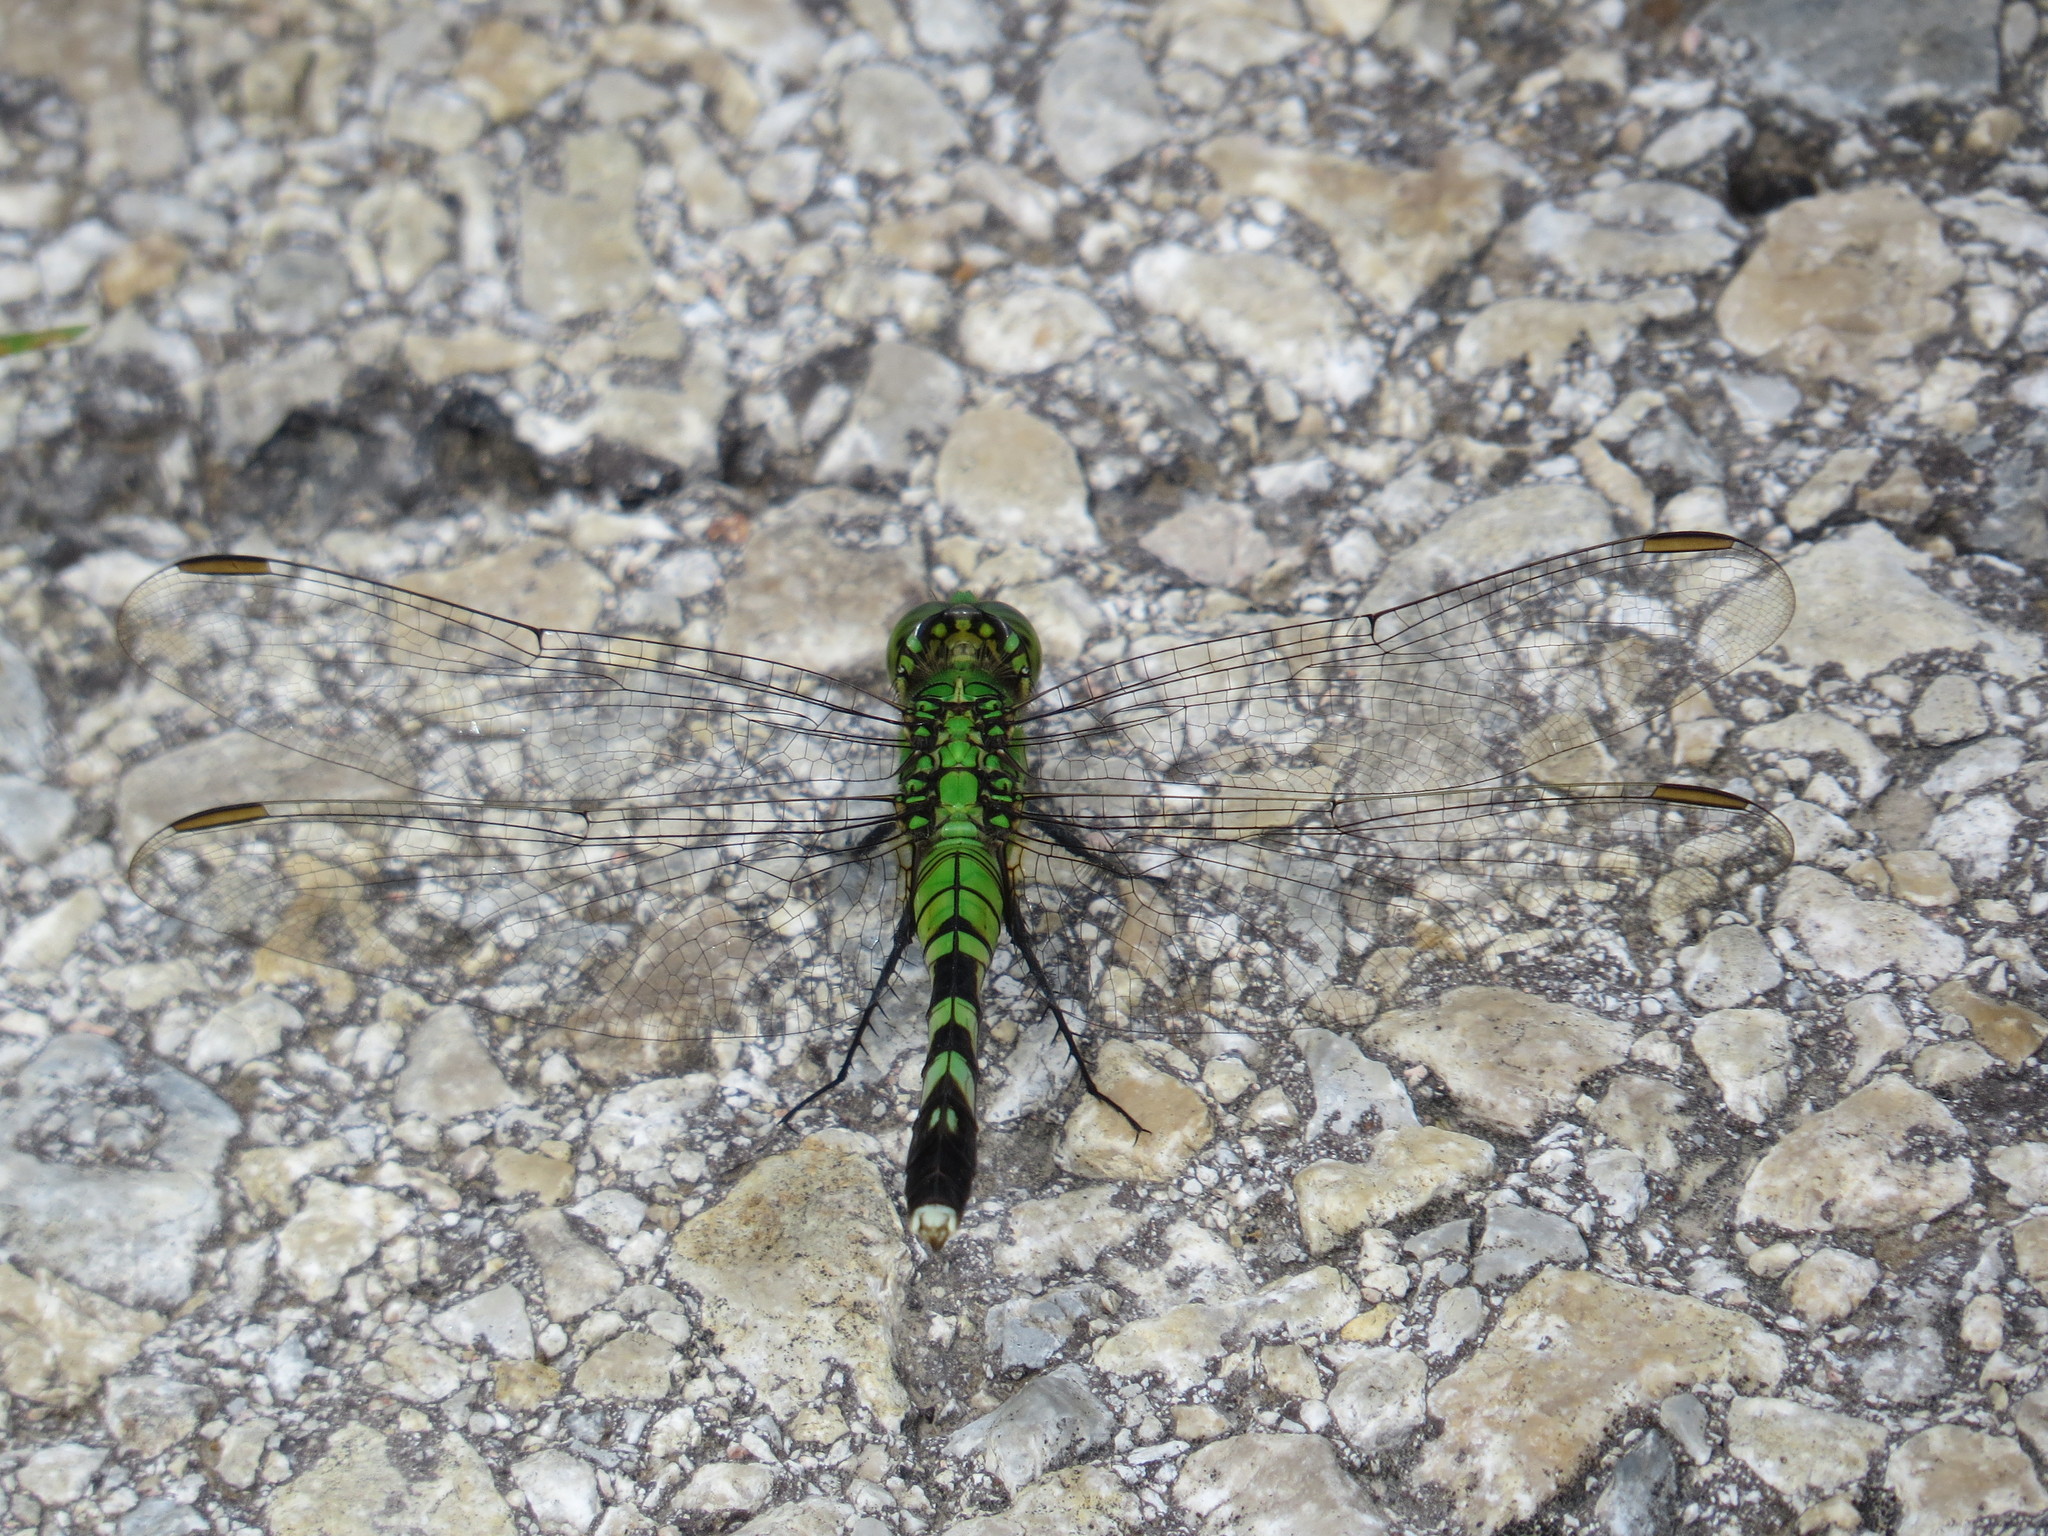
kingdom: Animalia
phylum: Arthropoda
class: Insecta
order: Odonata
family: Libellulidae
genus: Erythemis
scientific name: Erythemis simplicicollis
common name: Eastern pondhawk
